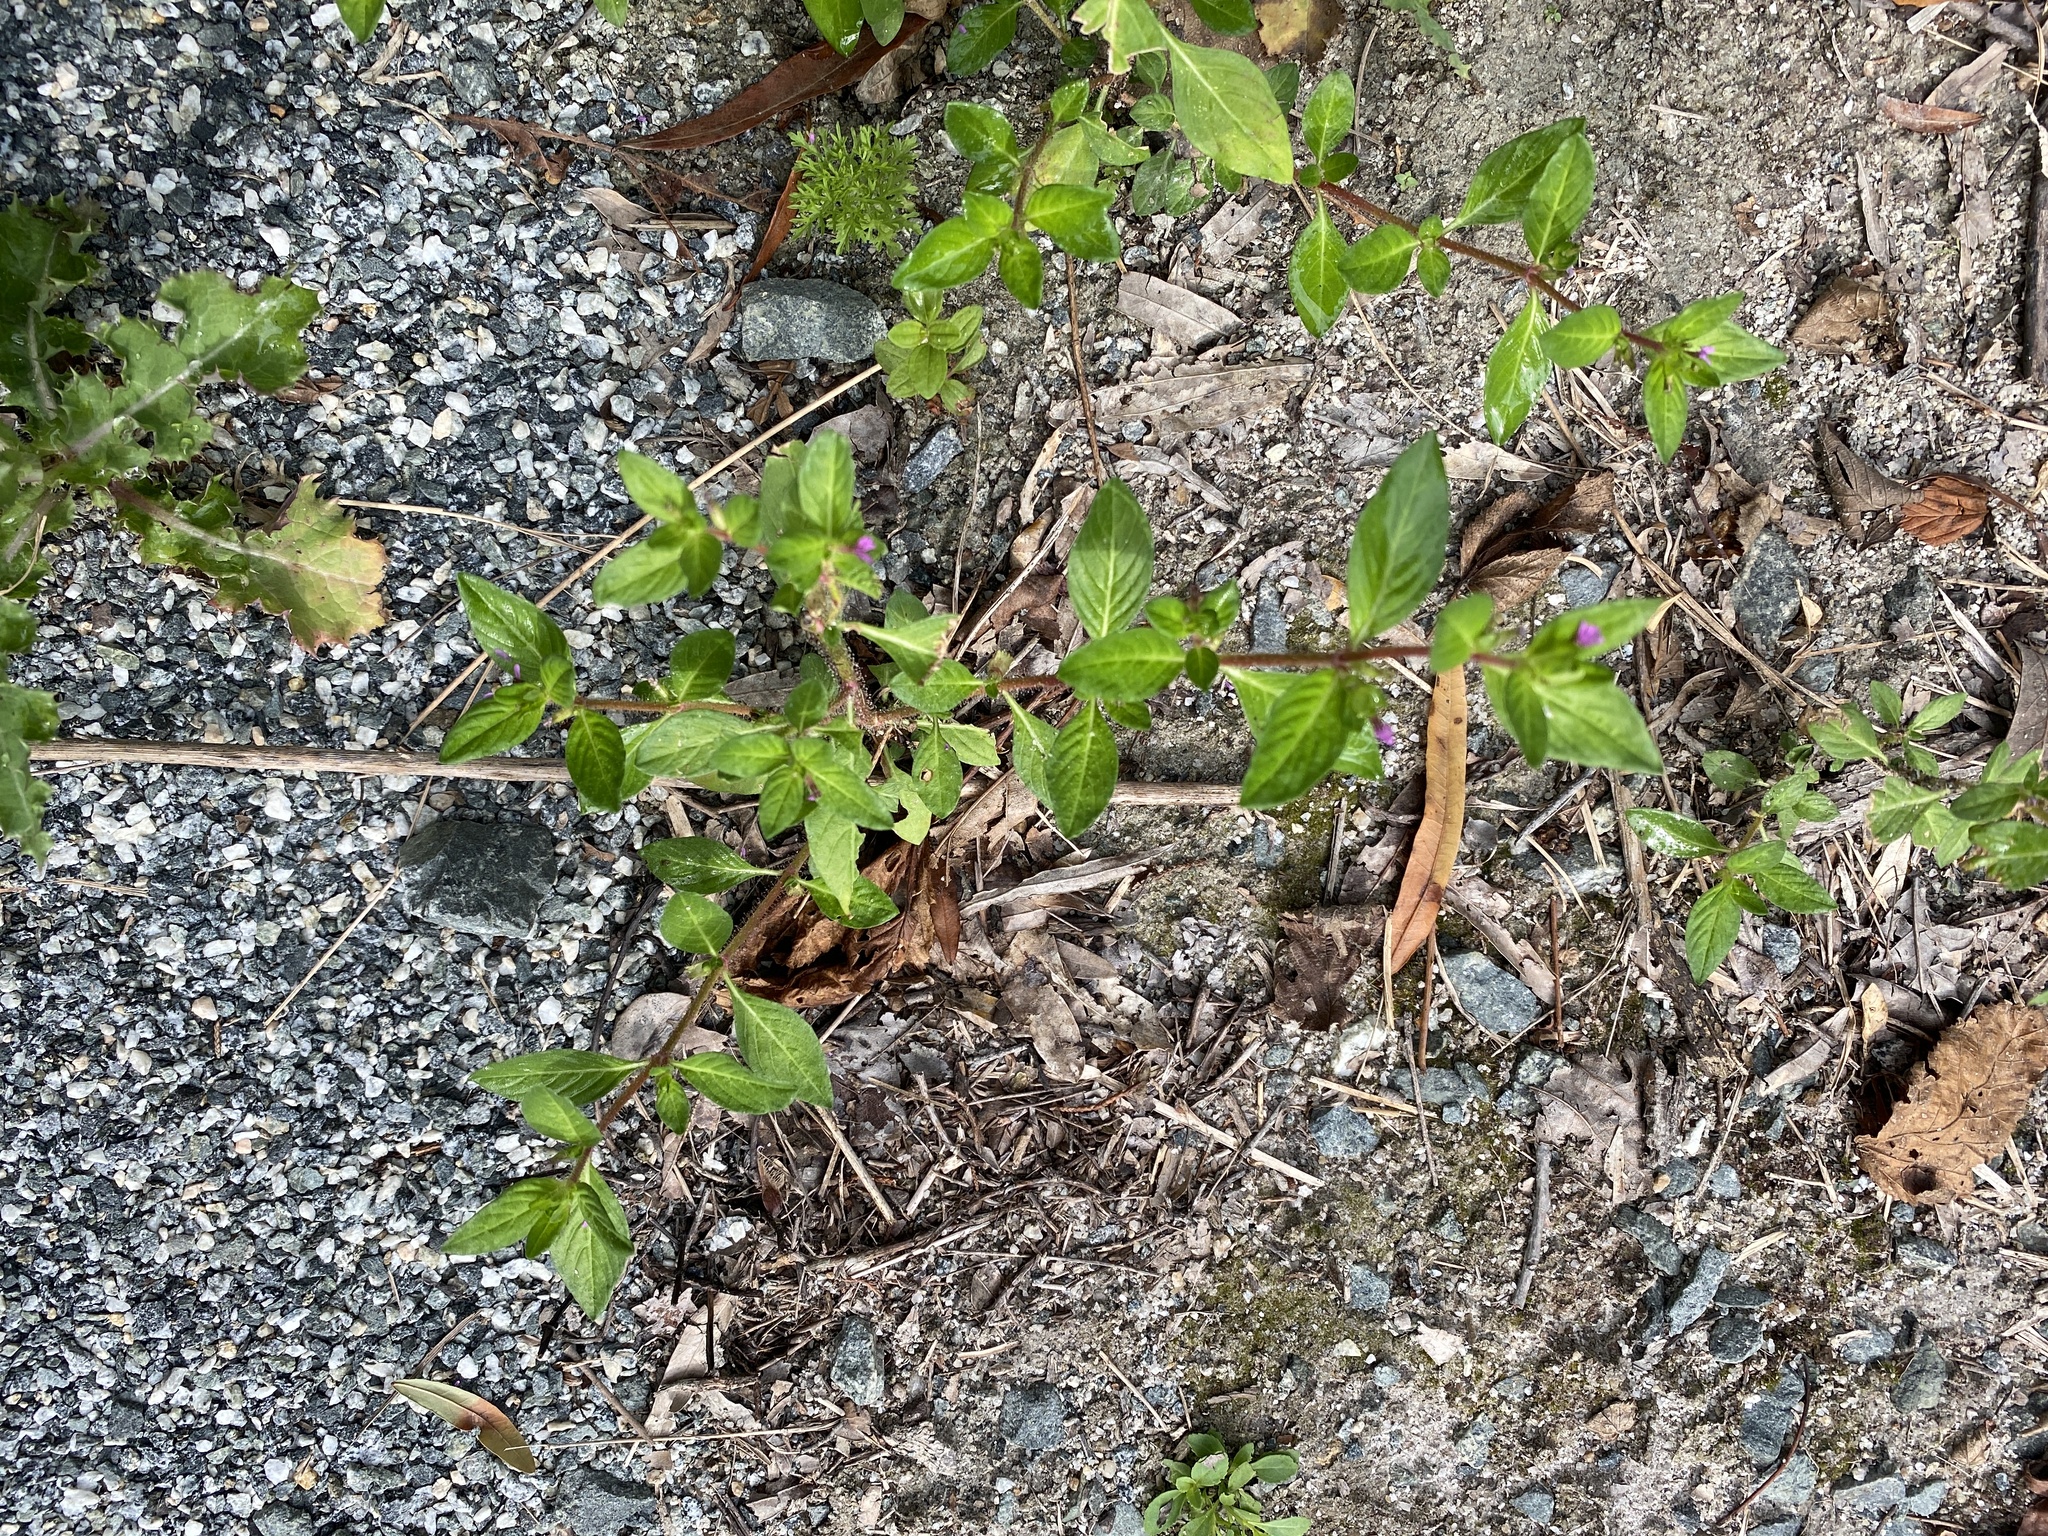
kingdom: Plantae
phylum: Tracheophyta
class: Magnoliopsida
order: Myrtales
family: Lythraceae
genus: Cuphea
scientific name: Cuphea carthagenensis
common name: Colombian waxweed
